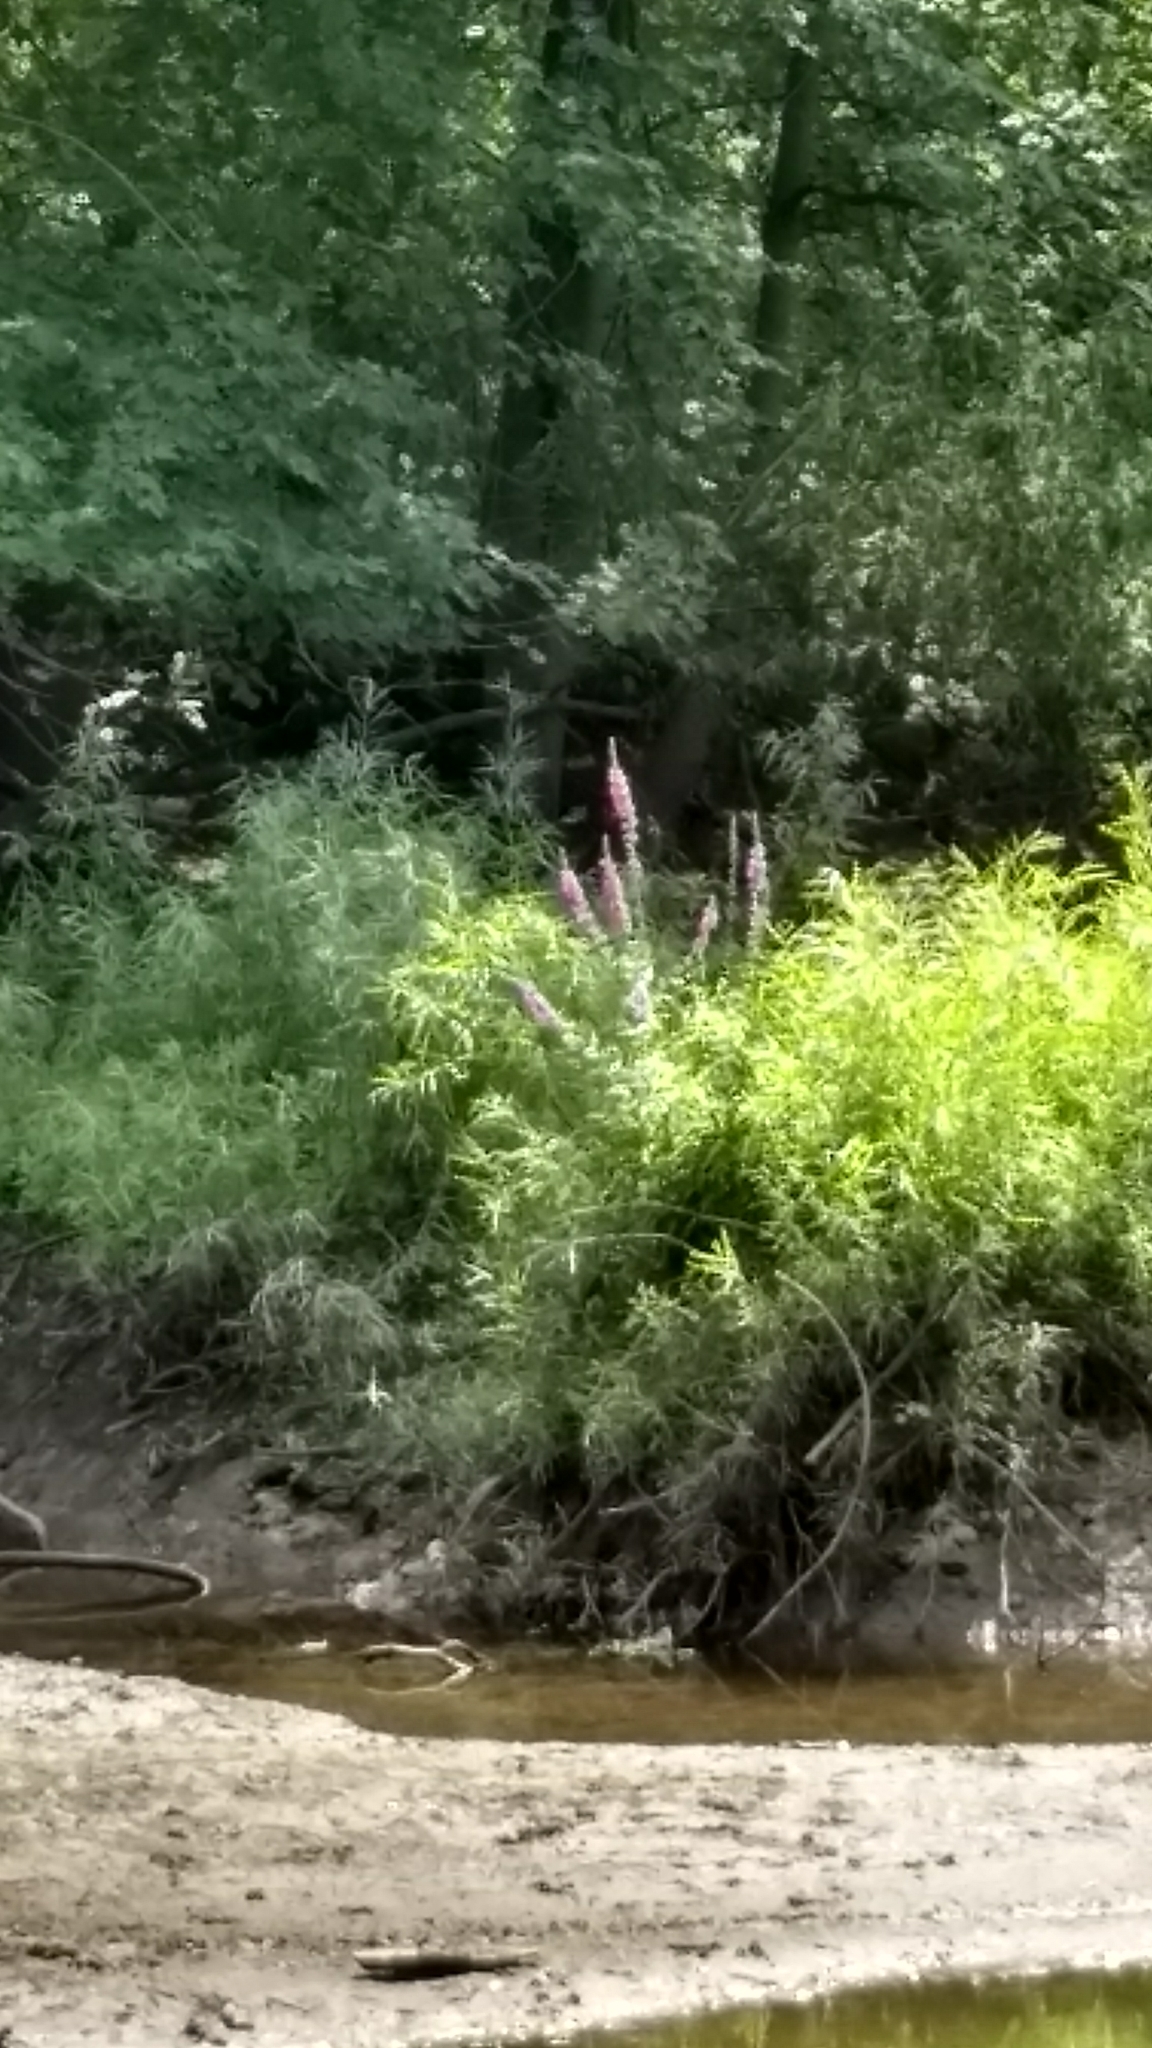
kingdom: Plantae
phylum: Tracheophyta
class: Magnoliopsida
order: Myrtales
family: Lythraceae
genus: Lythrum
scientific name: Lythrum salicaria
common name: Purple loosestrife
